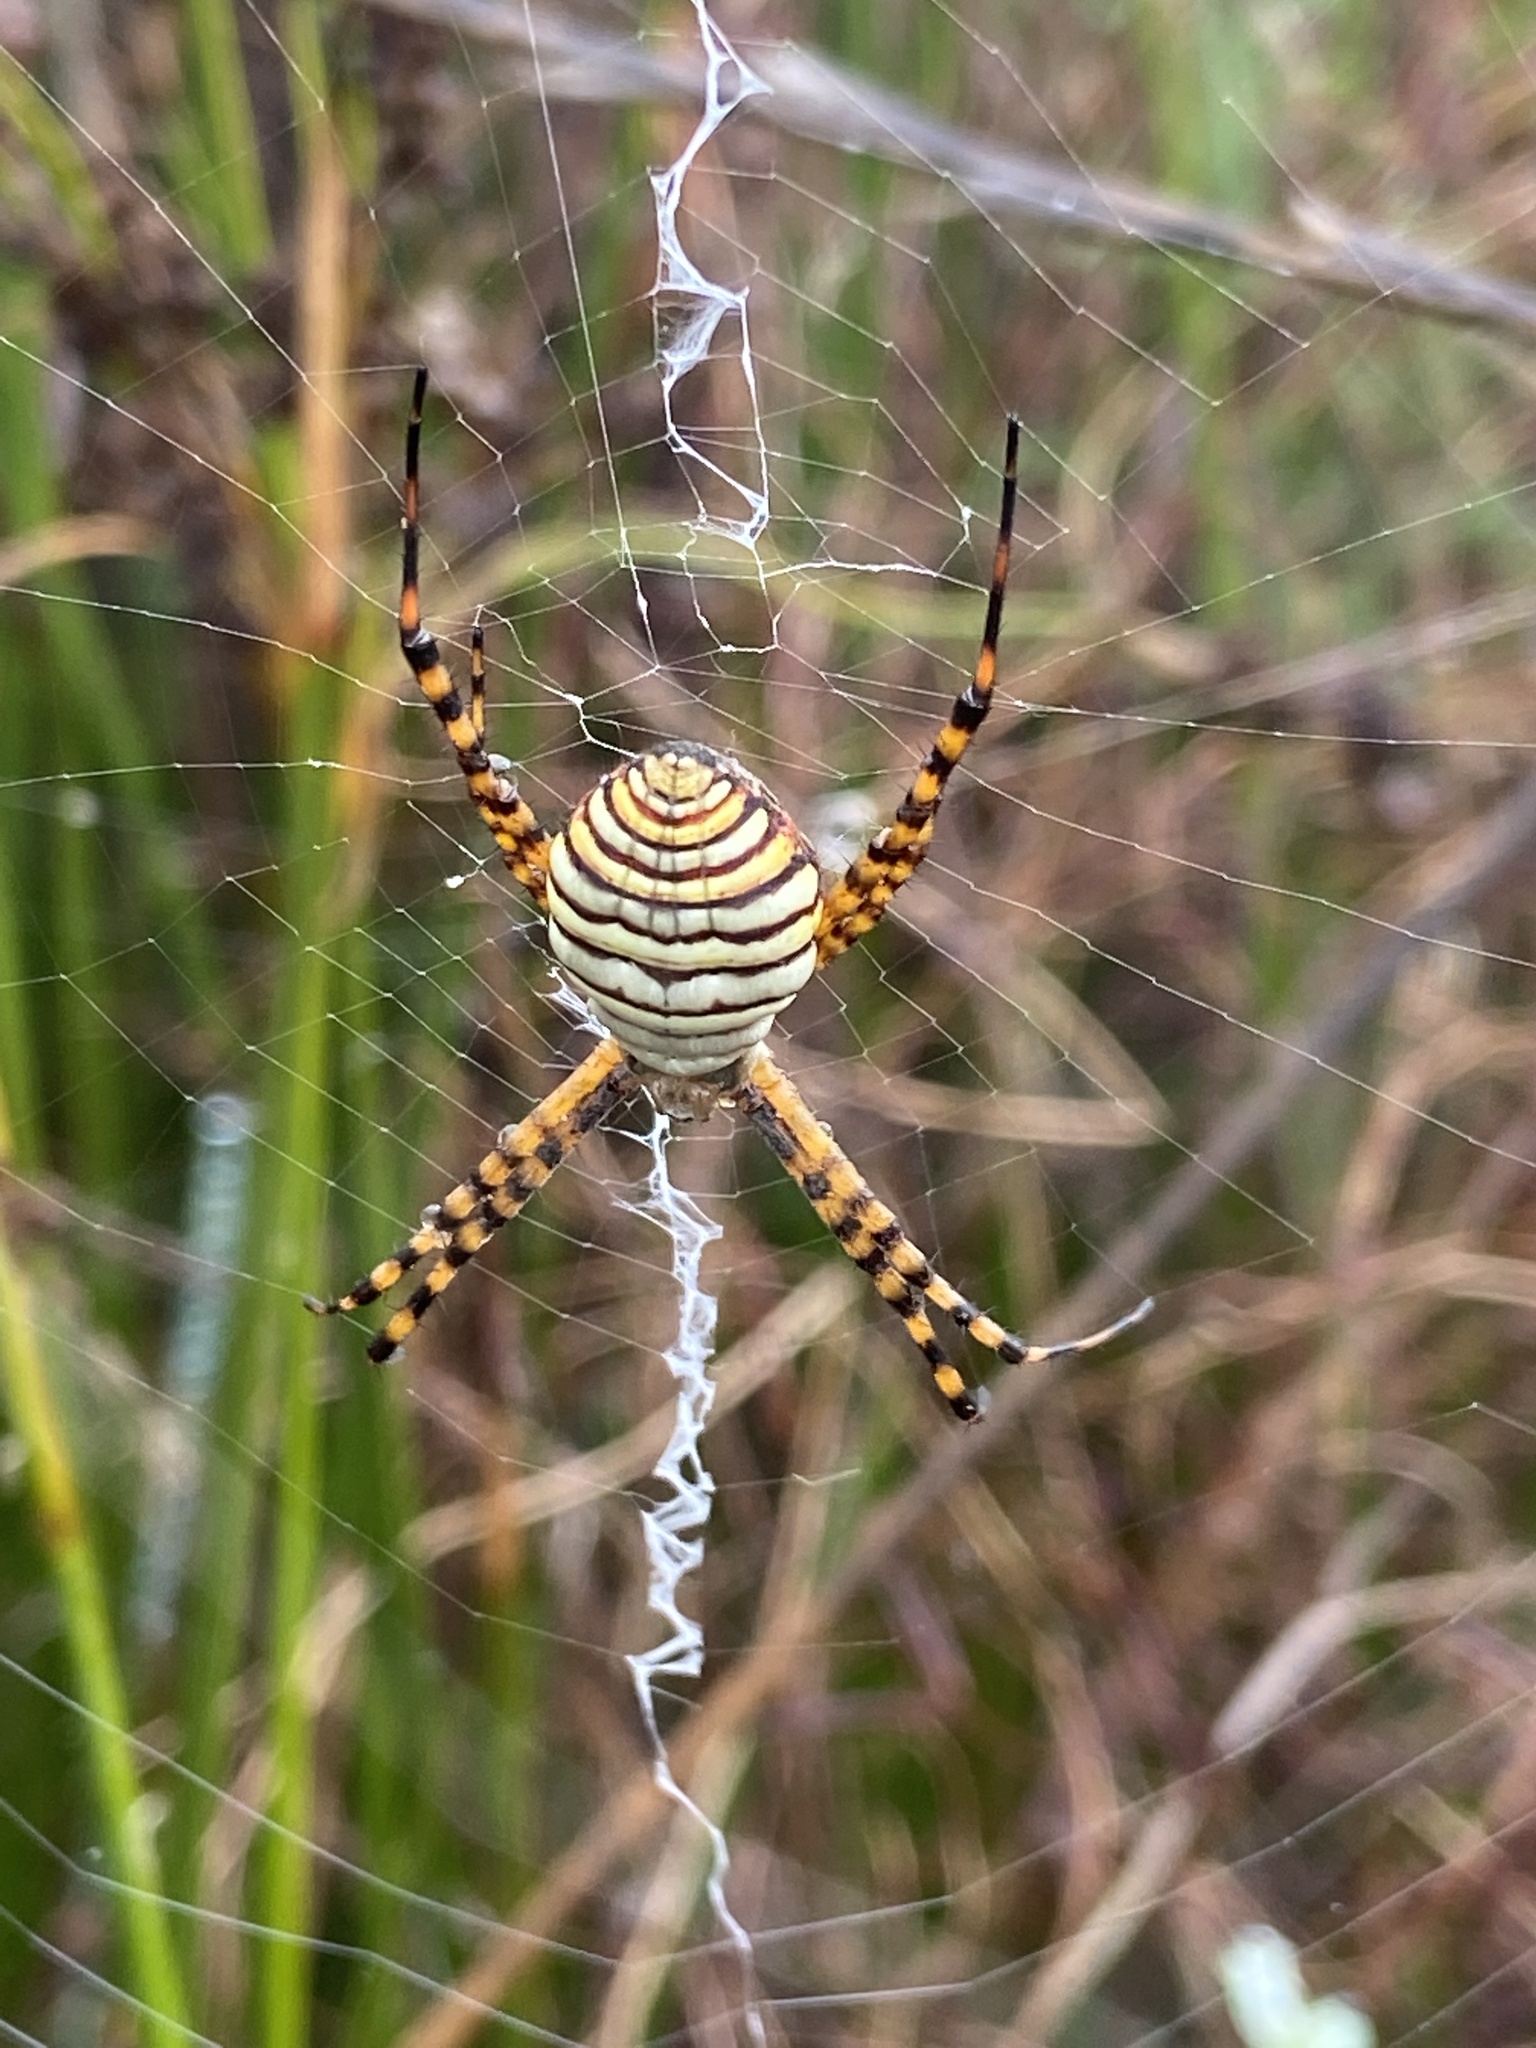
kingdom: Animalia
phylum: Arthropoda
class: Arachnida
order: Araneae
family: Araneidae
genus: Argiope
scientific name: Argiope trifasciata
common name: Banded garden spider
